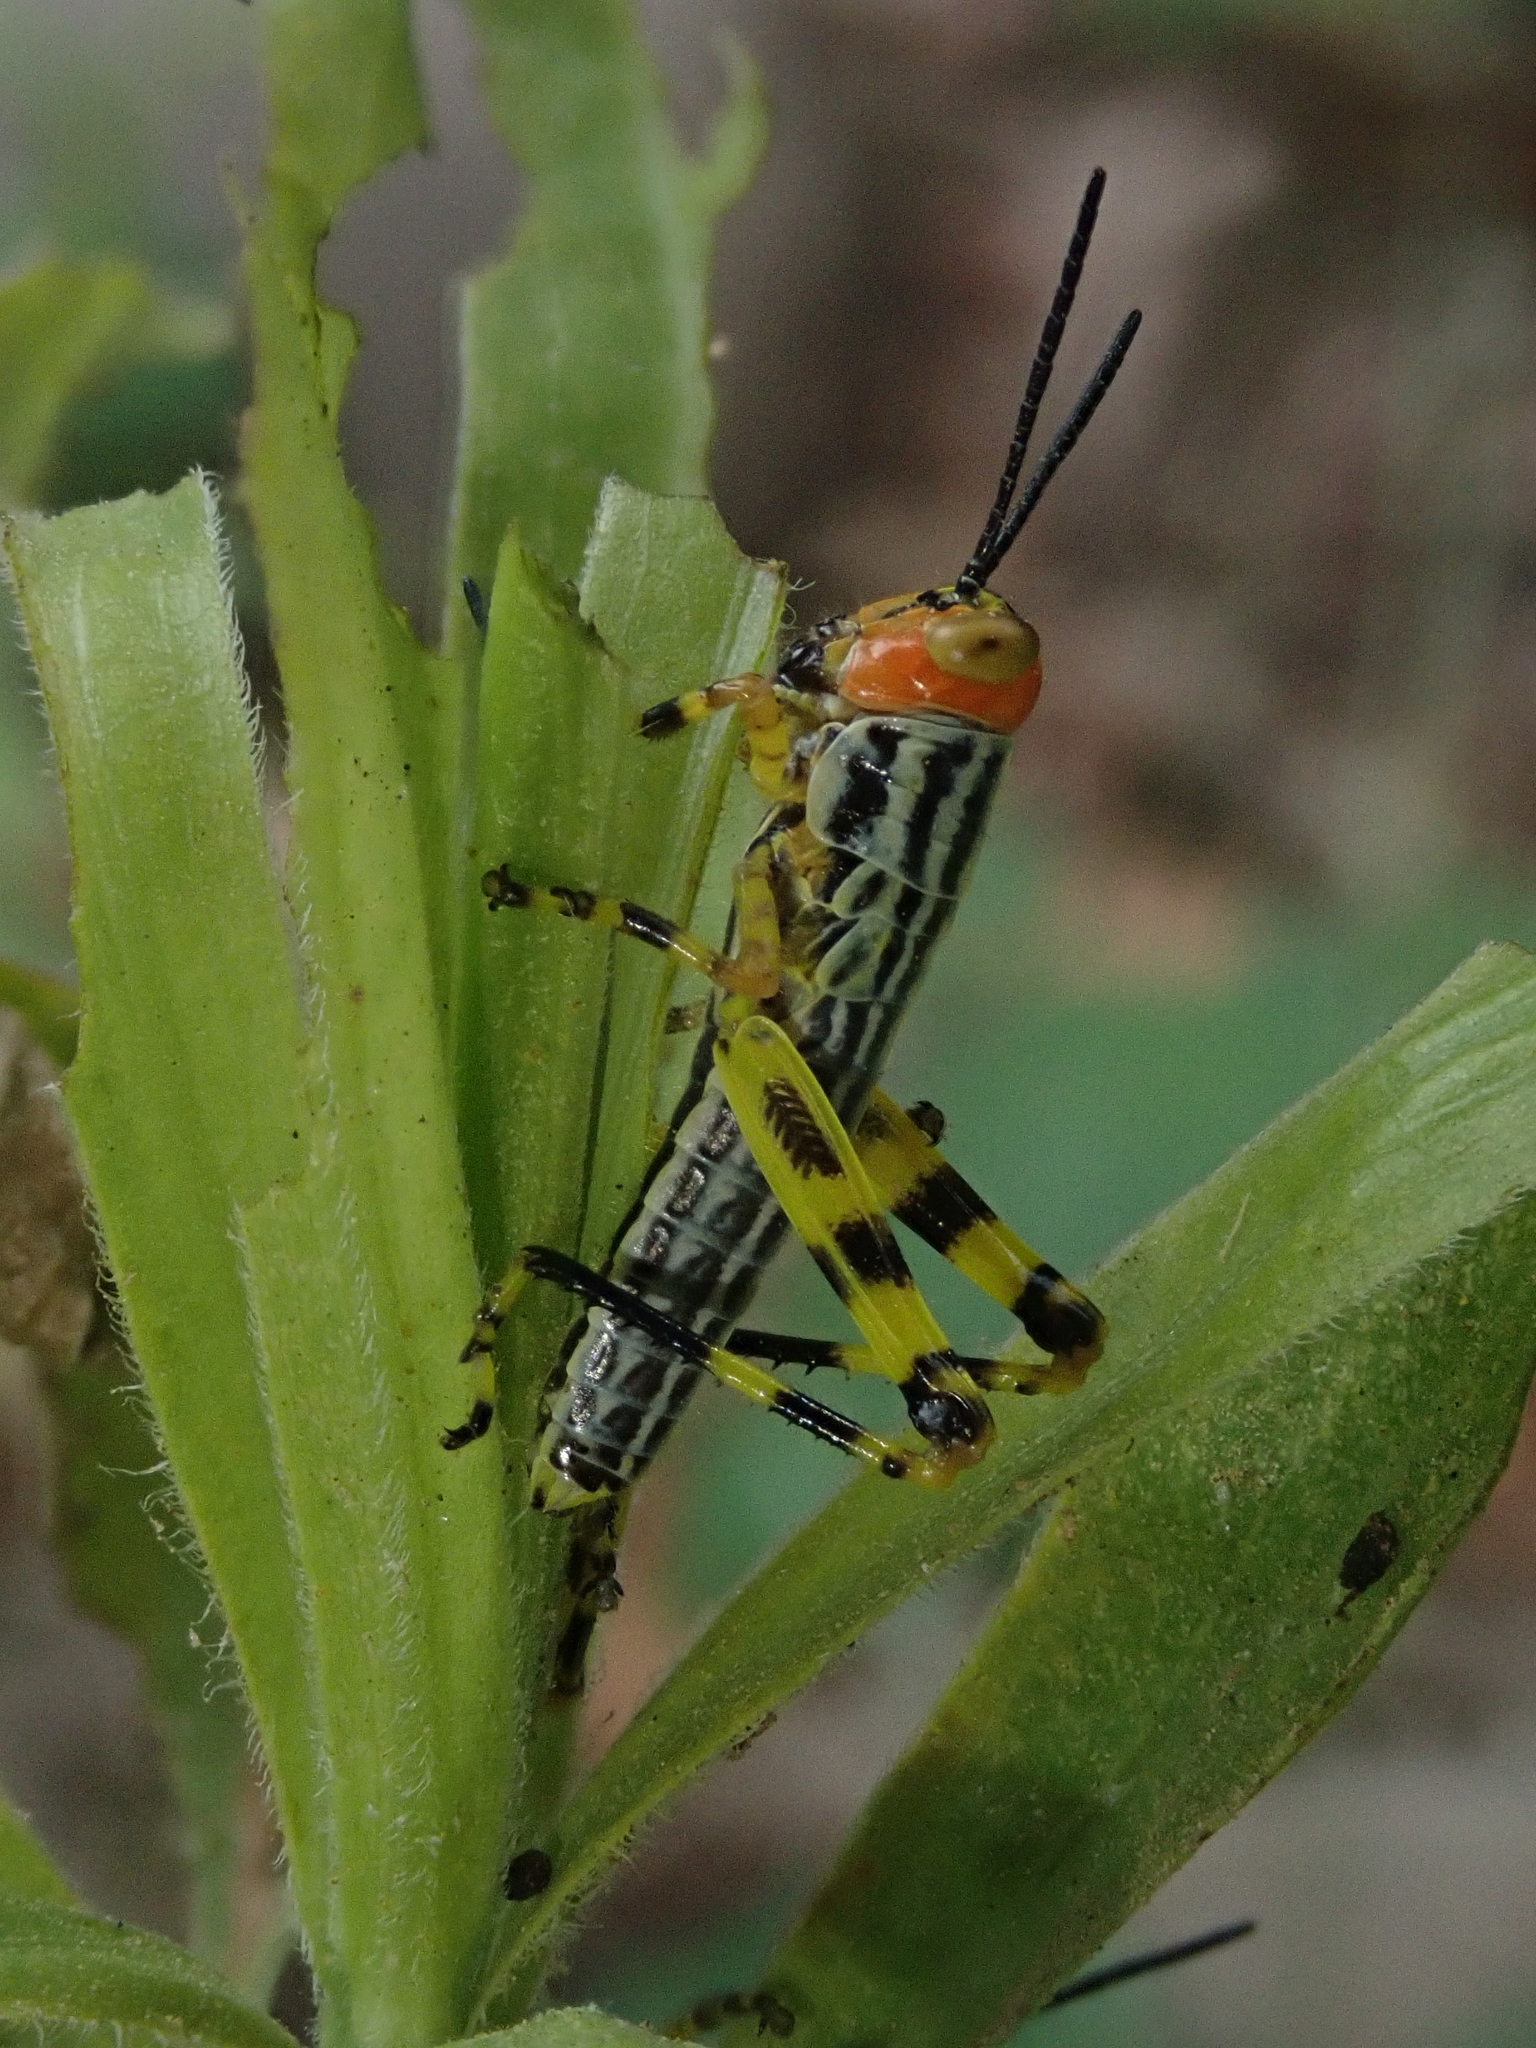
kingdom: Animalia
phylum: Arthropoda
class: Insecta
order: Orthoptera
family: Romaleidae
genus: Zoniopoda
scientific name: Zoniopoda tarsata
